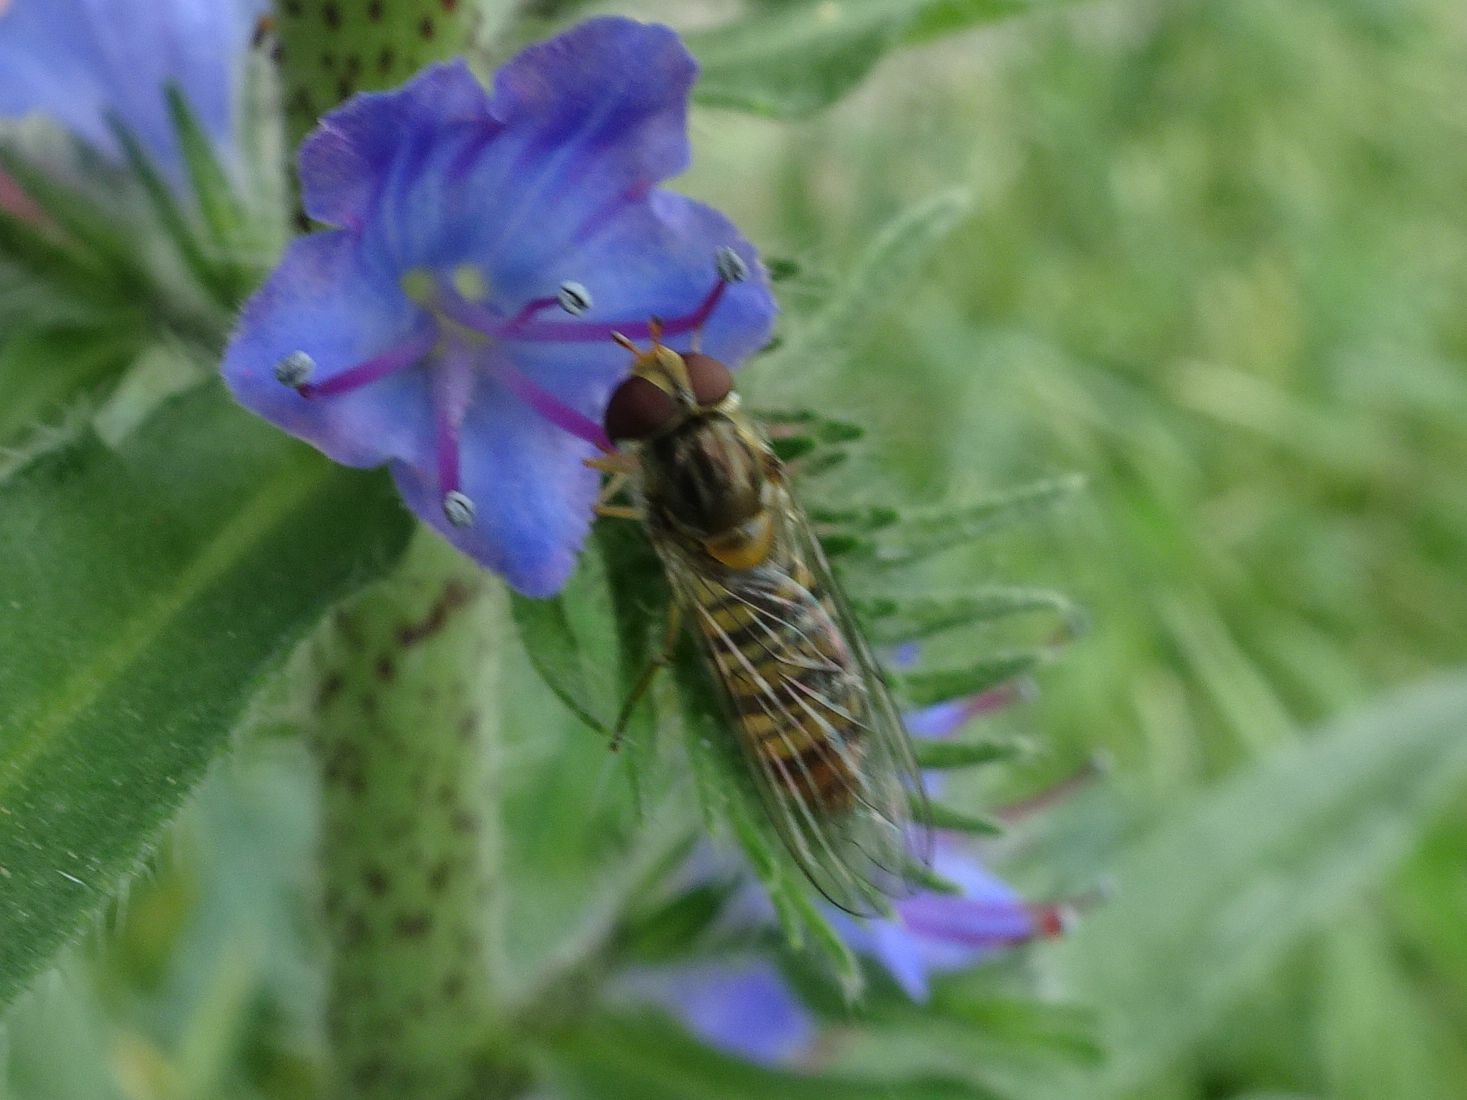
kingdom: Animalia
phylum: Arthropoda
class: Insecta
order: Diptera
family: Syrphidae
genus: Episyrphus
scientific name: Episyrphus balteatus
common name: Marmalade hoverfly
